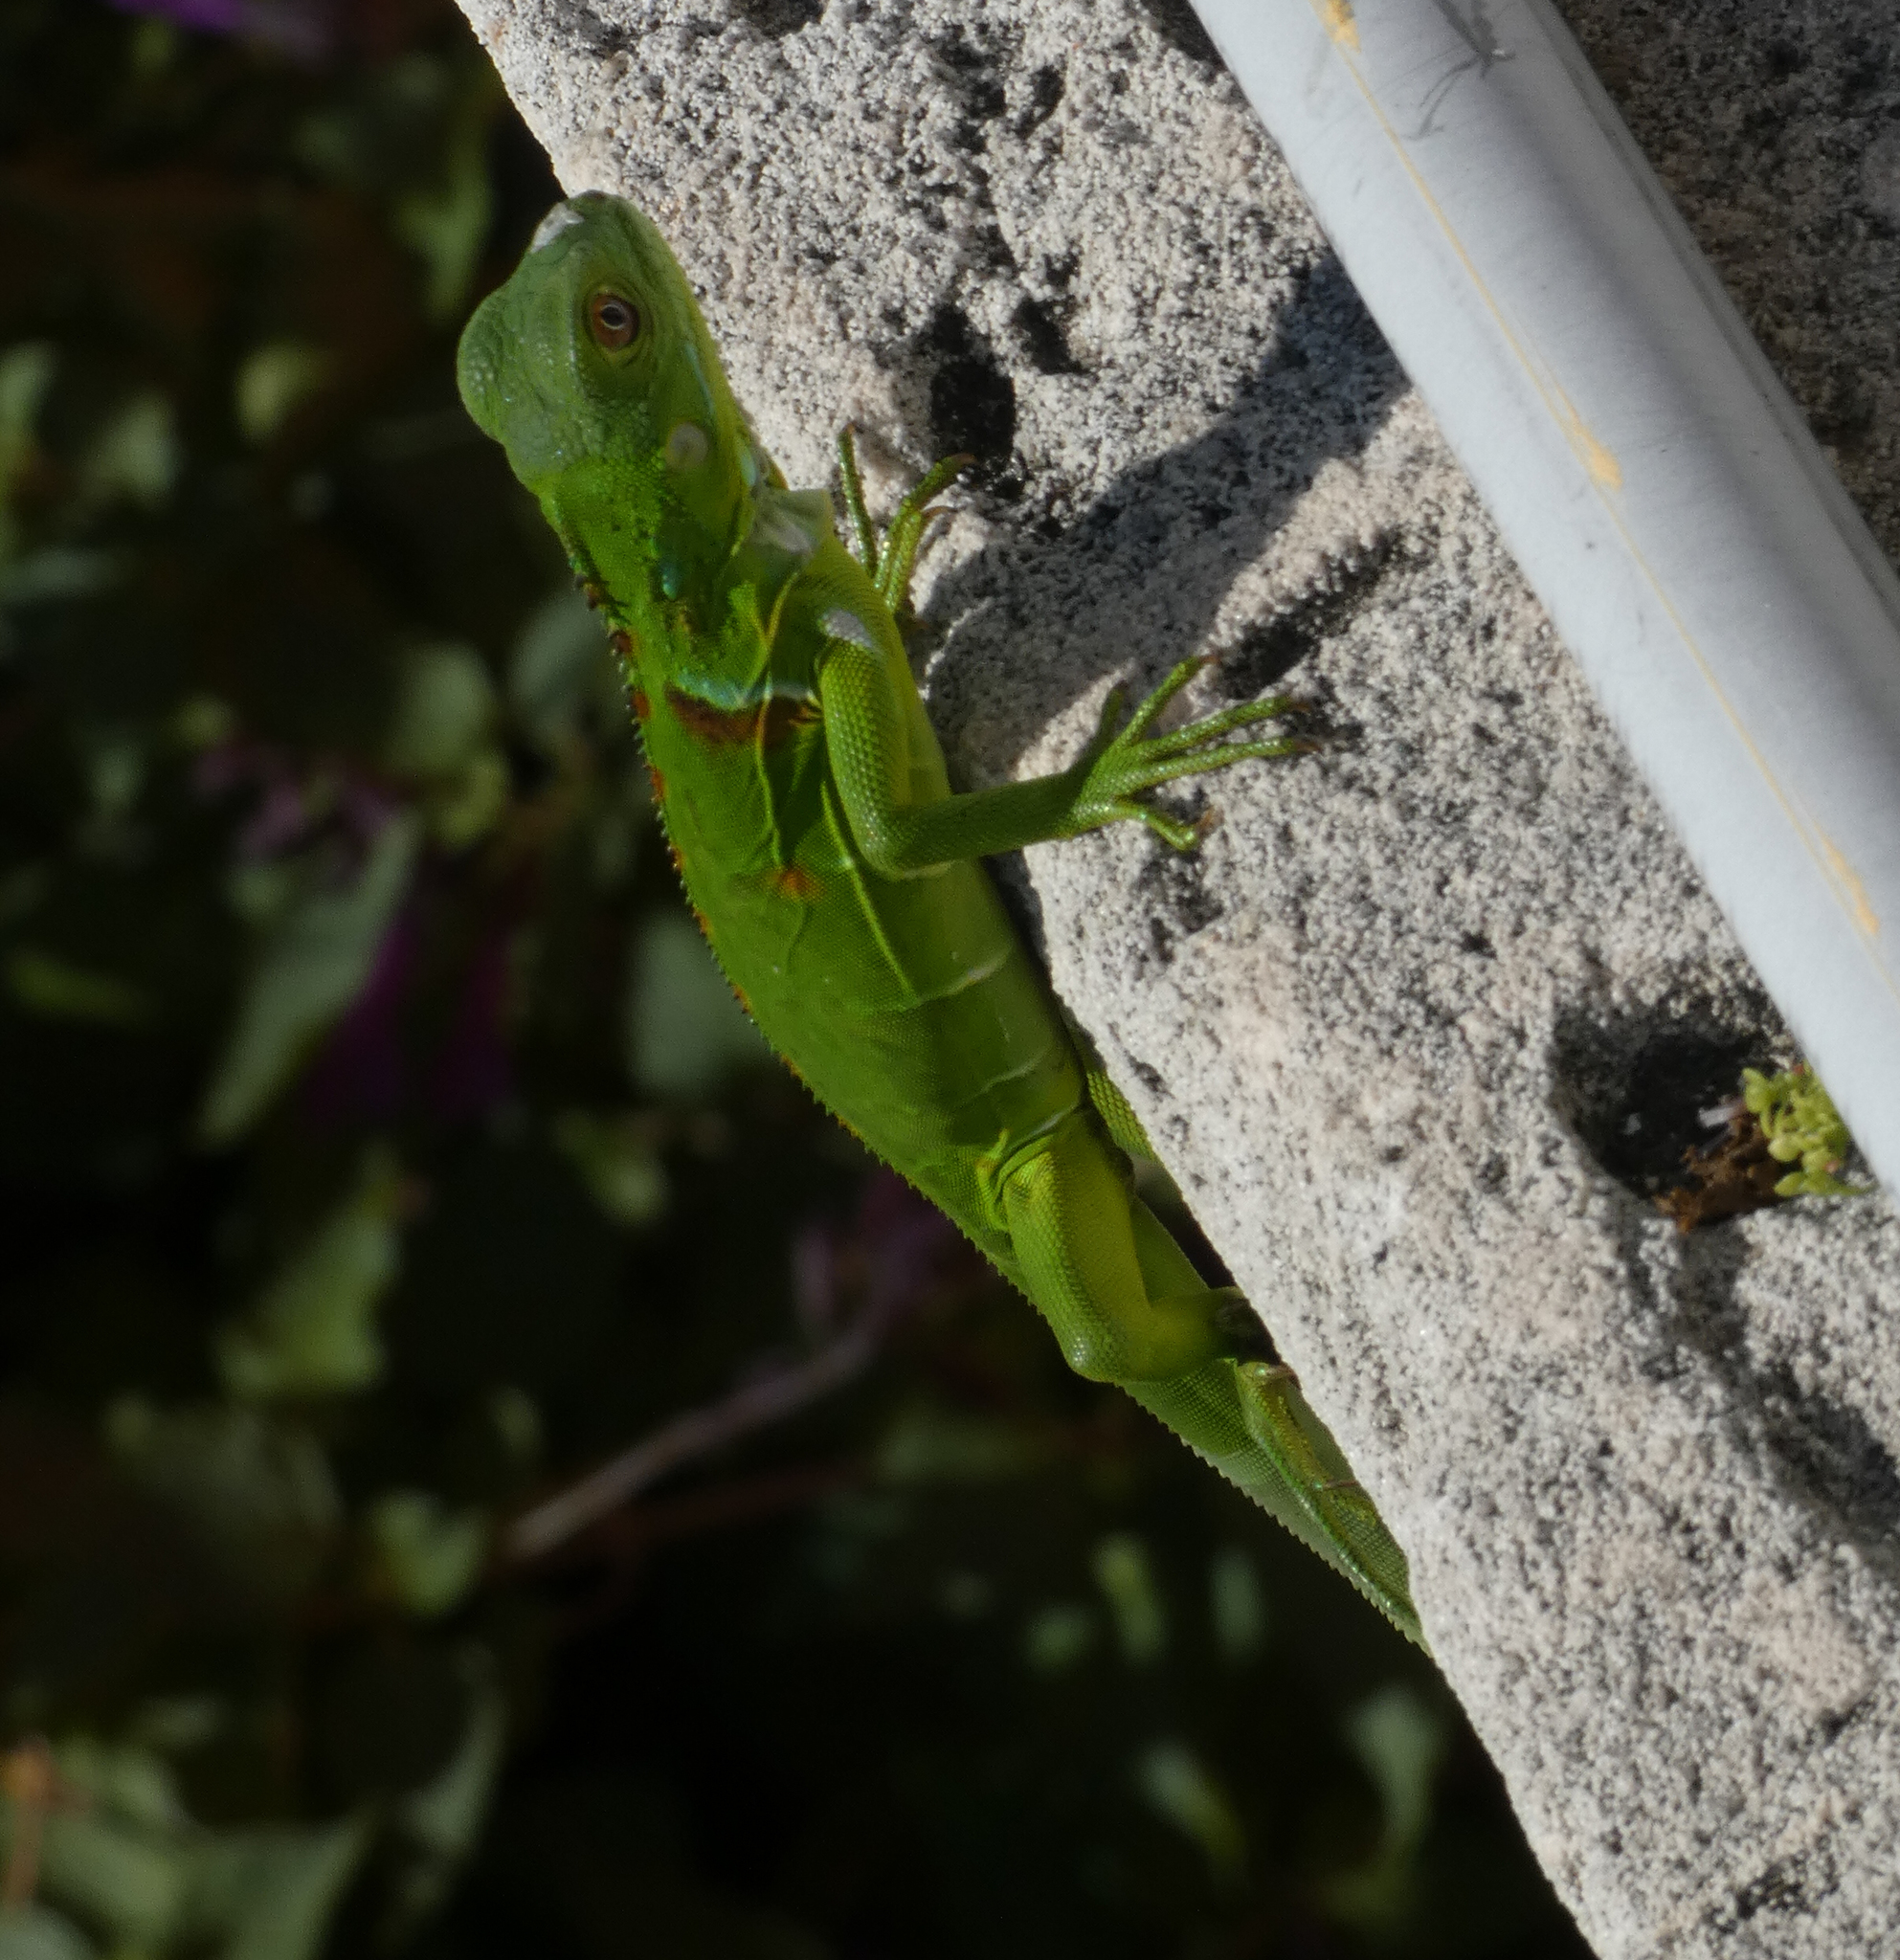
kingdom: Animalia
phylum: Chordata
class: Squamata
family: Iguanidae
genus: Iguana
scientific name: Iguana iguana
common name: Green iguana
